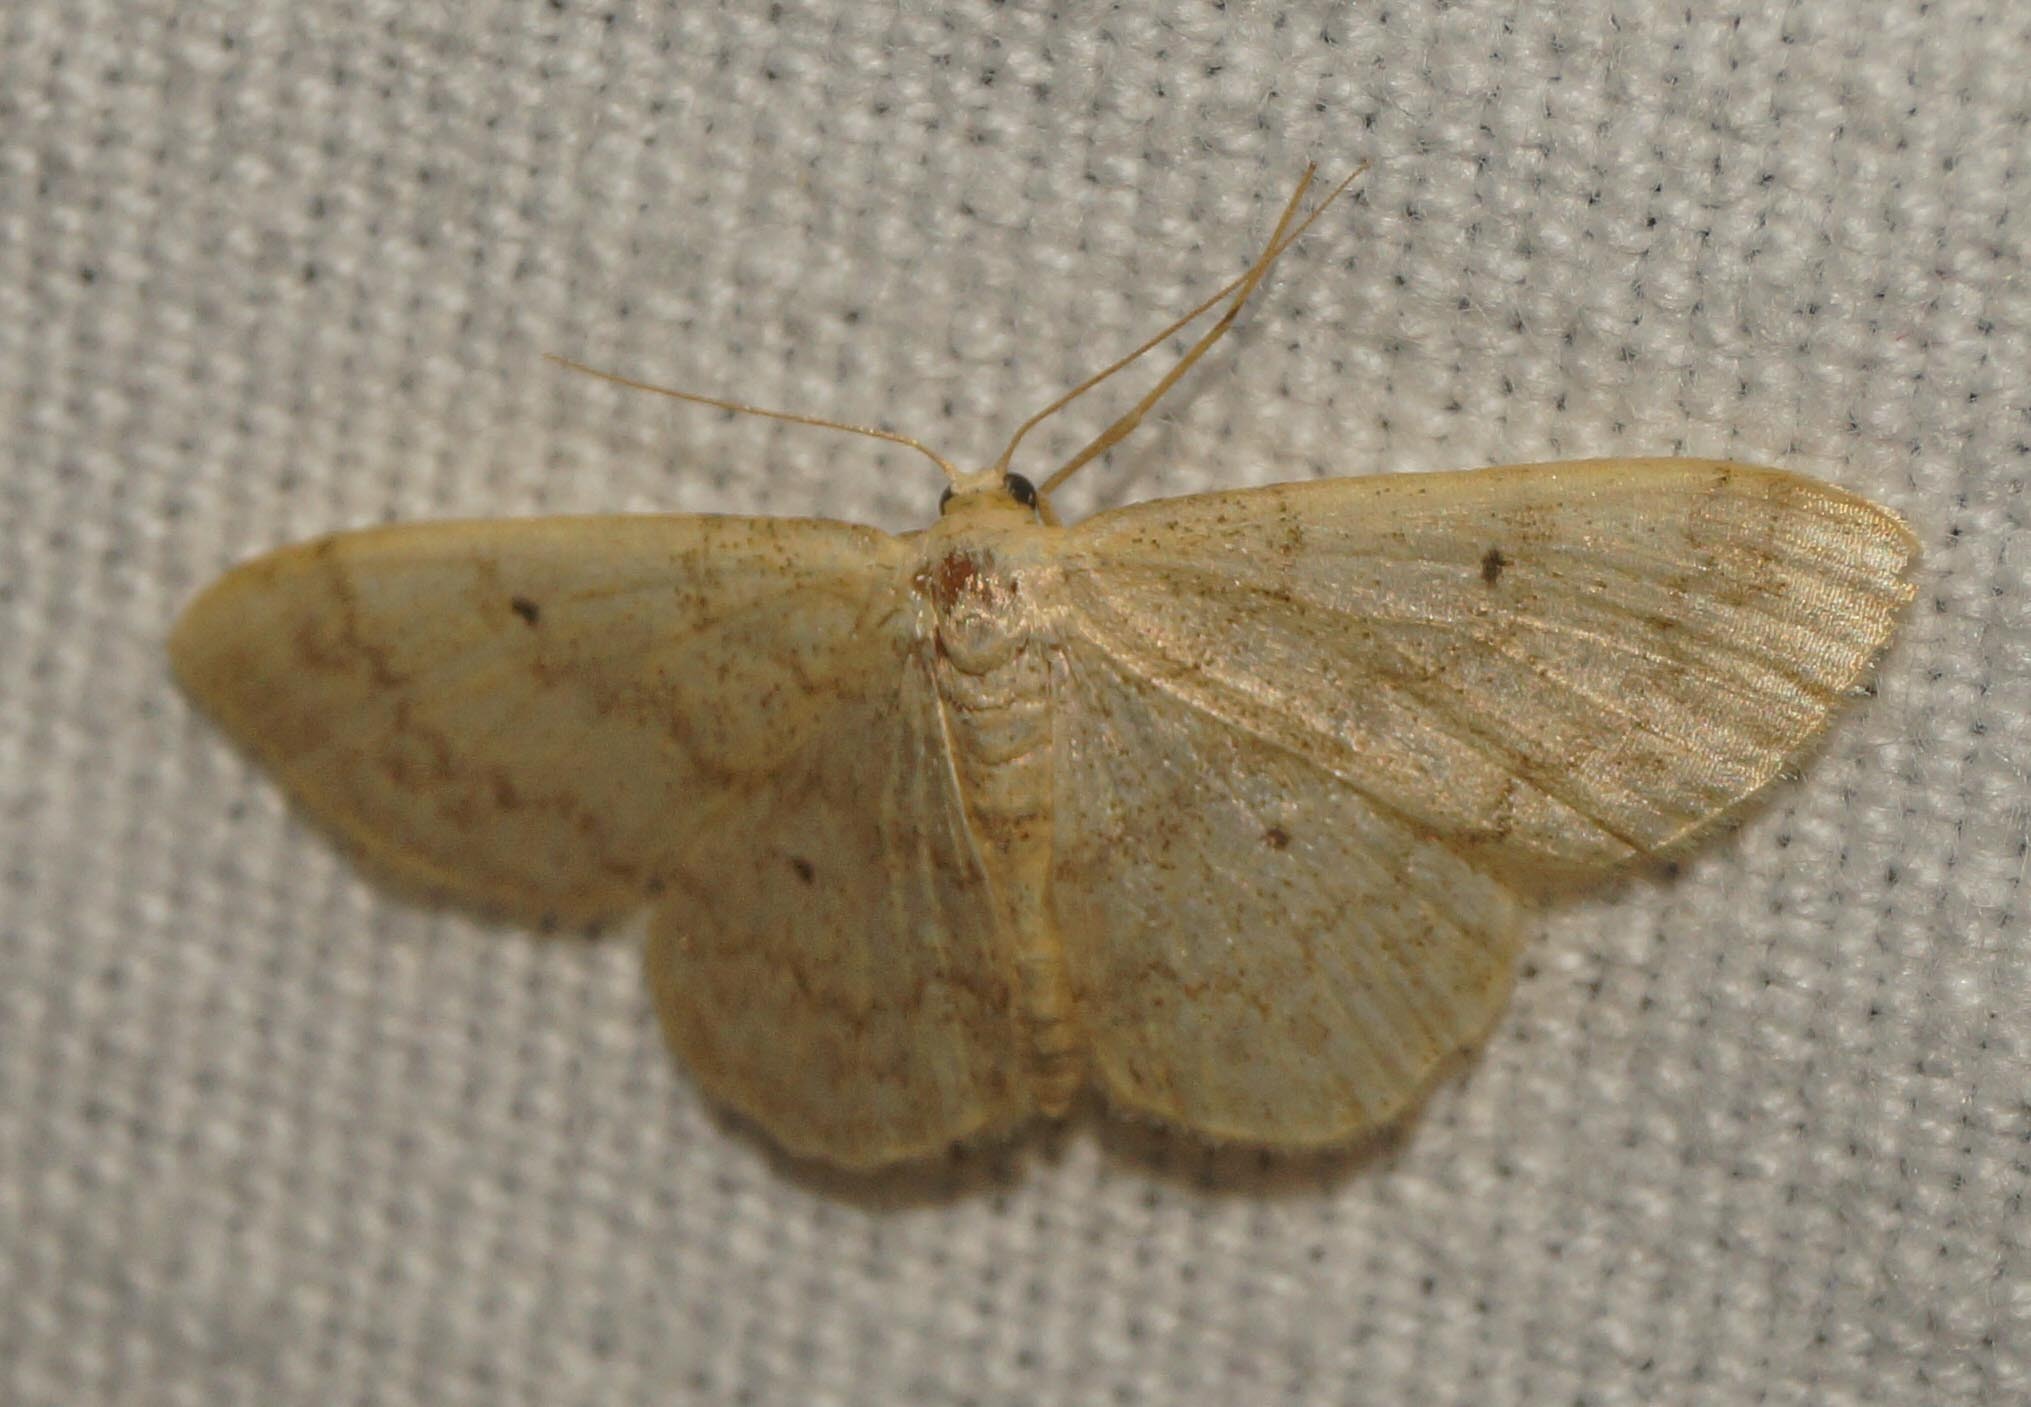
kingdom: Animalia
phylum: Arthropoda
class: Insecta
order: Lepidoptera
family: Geometridae
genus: Idaea
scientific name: Idaea biselata
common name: Small fan-footed wave
